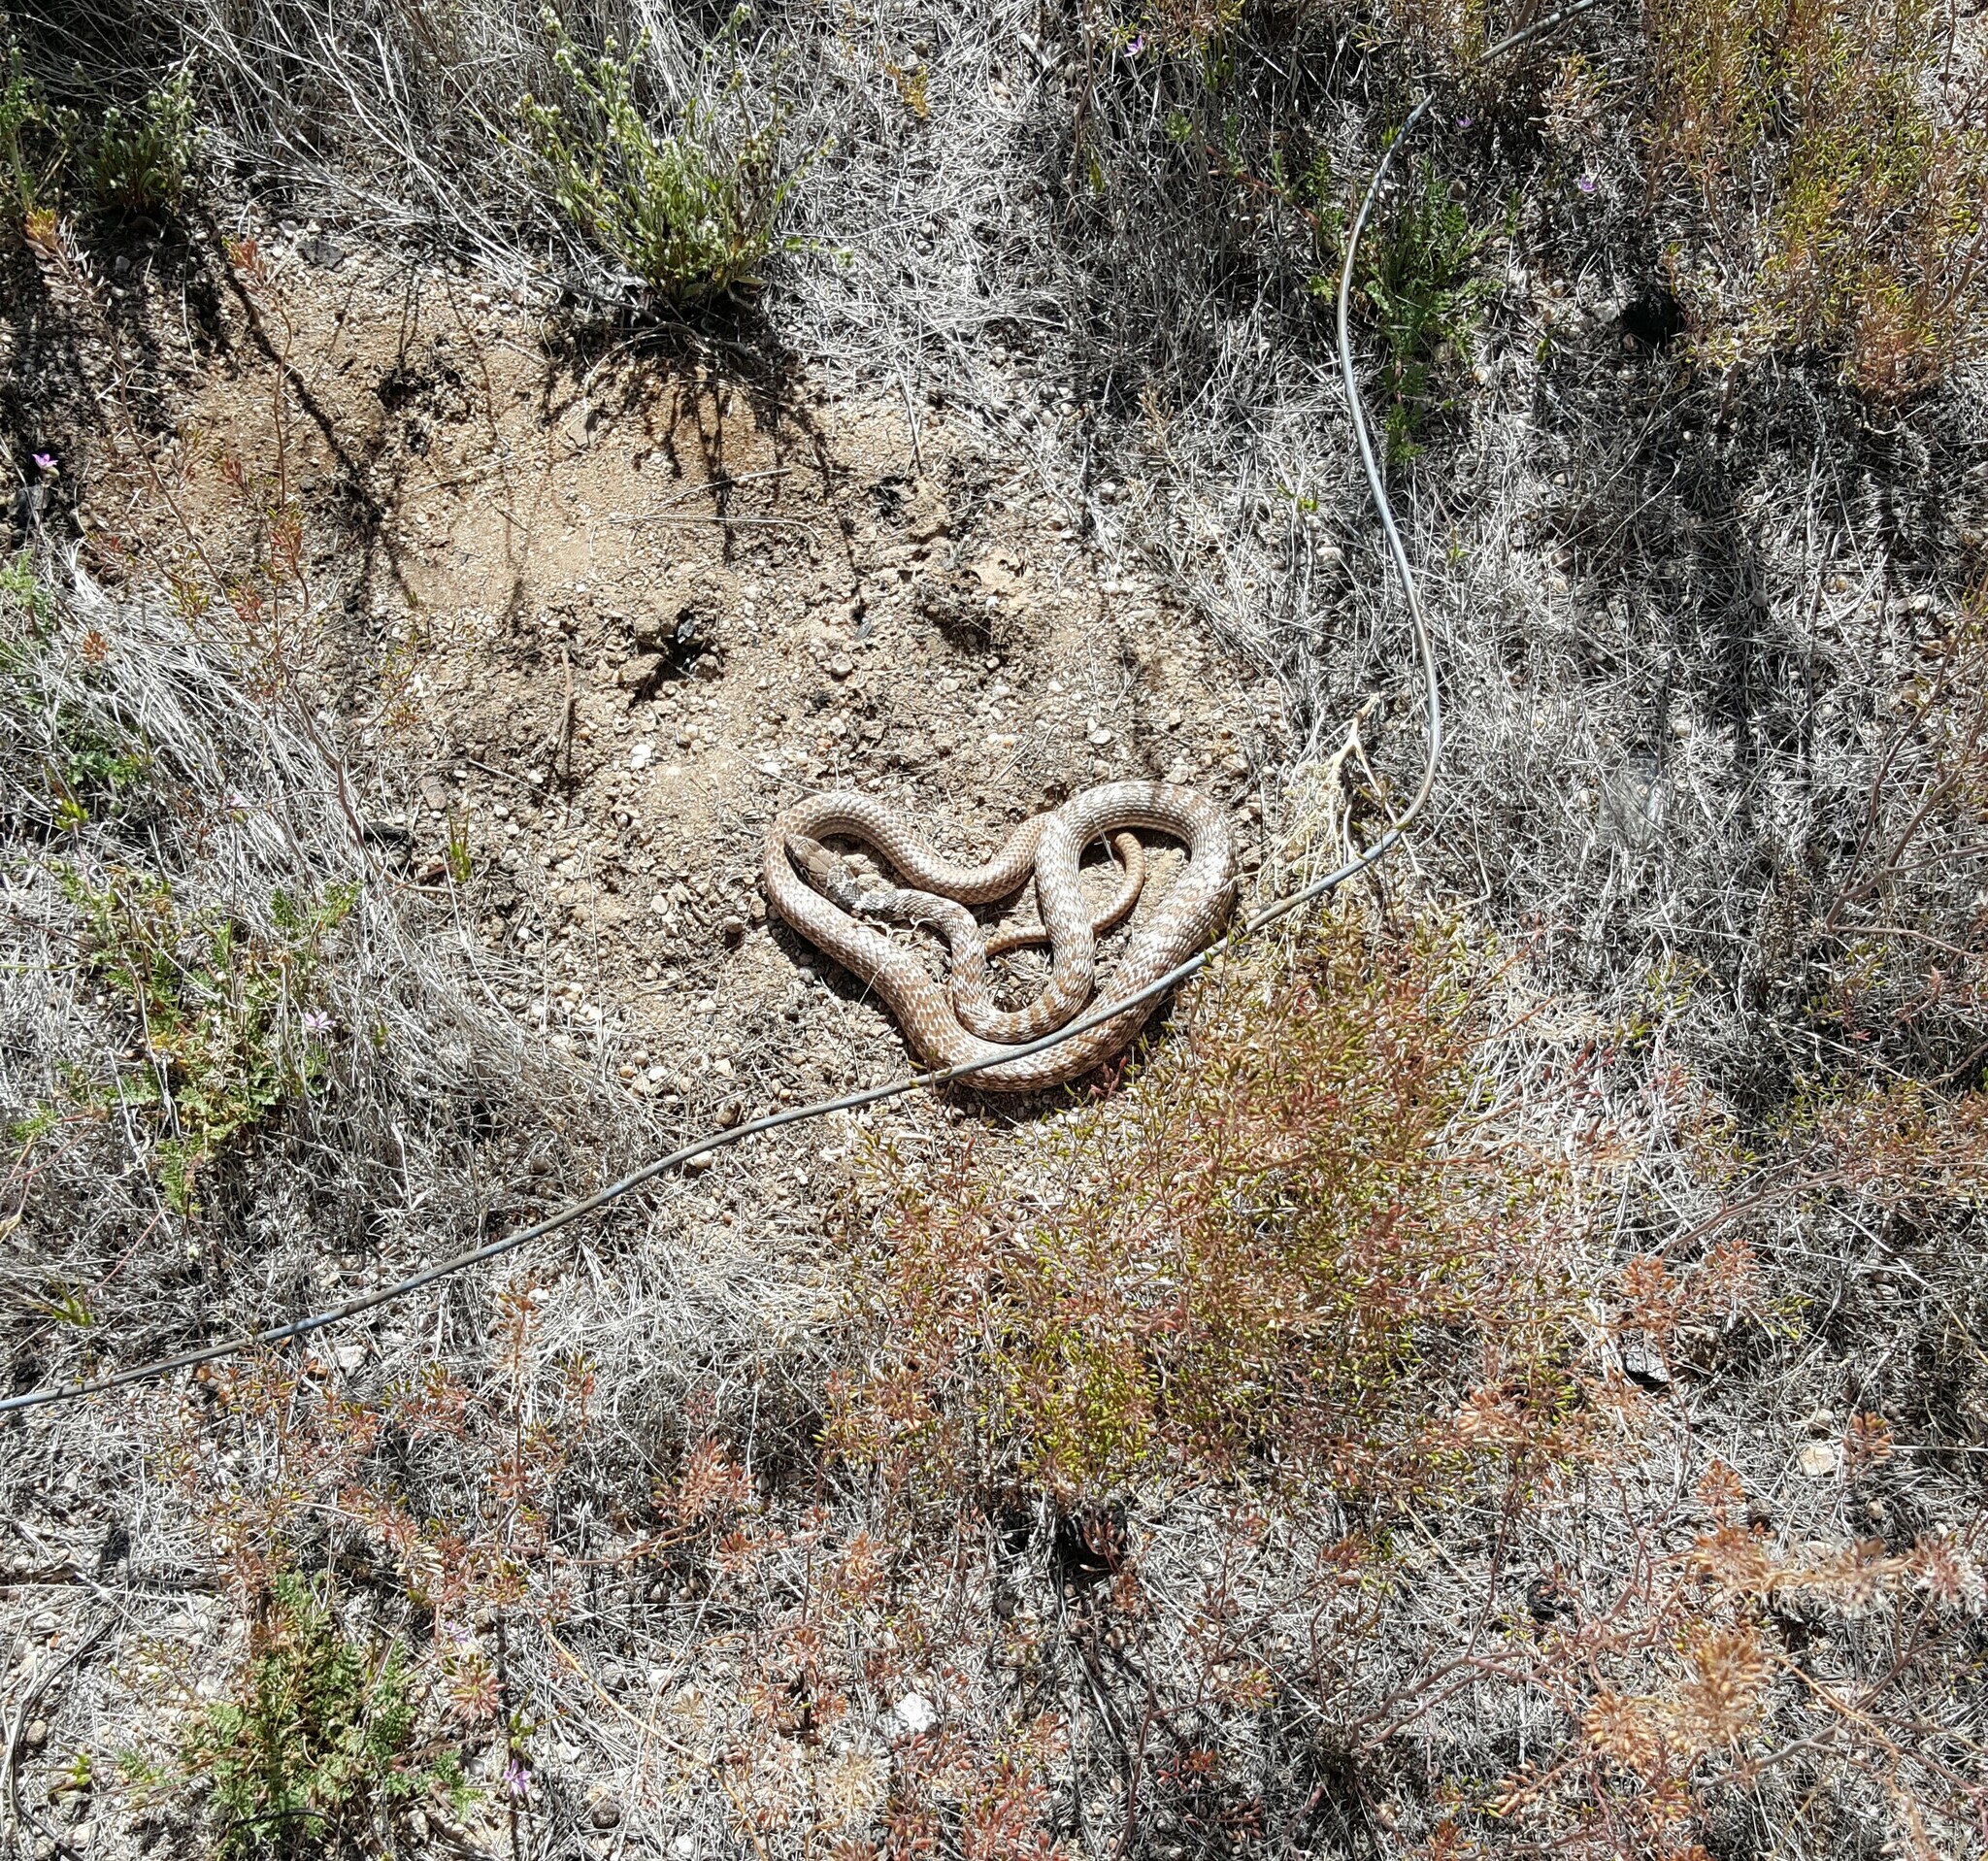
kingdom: Animalia
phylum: Chordata
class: Squamata
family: Colubridae
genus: Masticophis
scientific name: Masticophis flagellum
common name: Coachwhip
